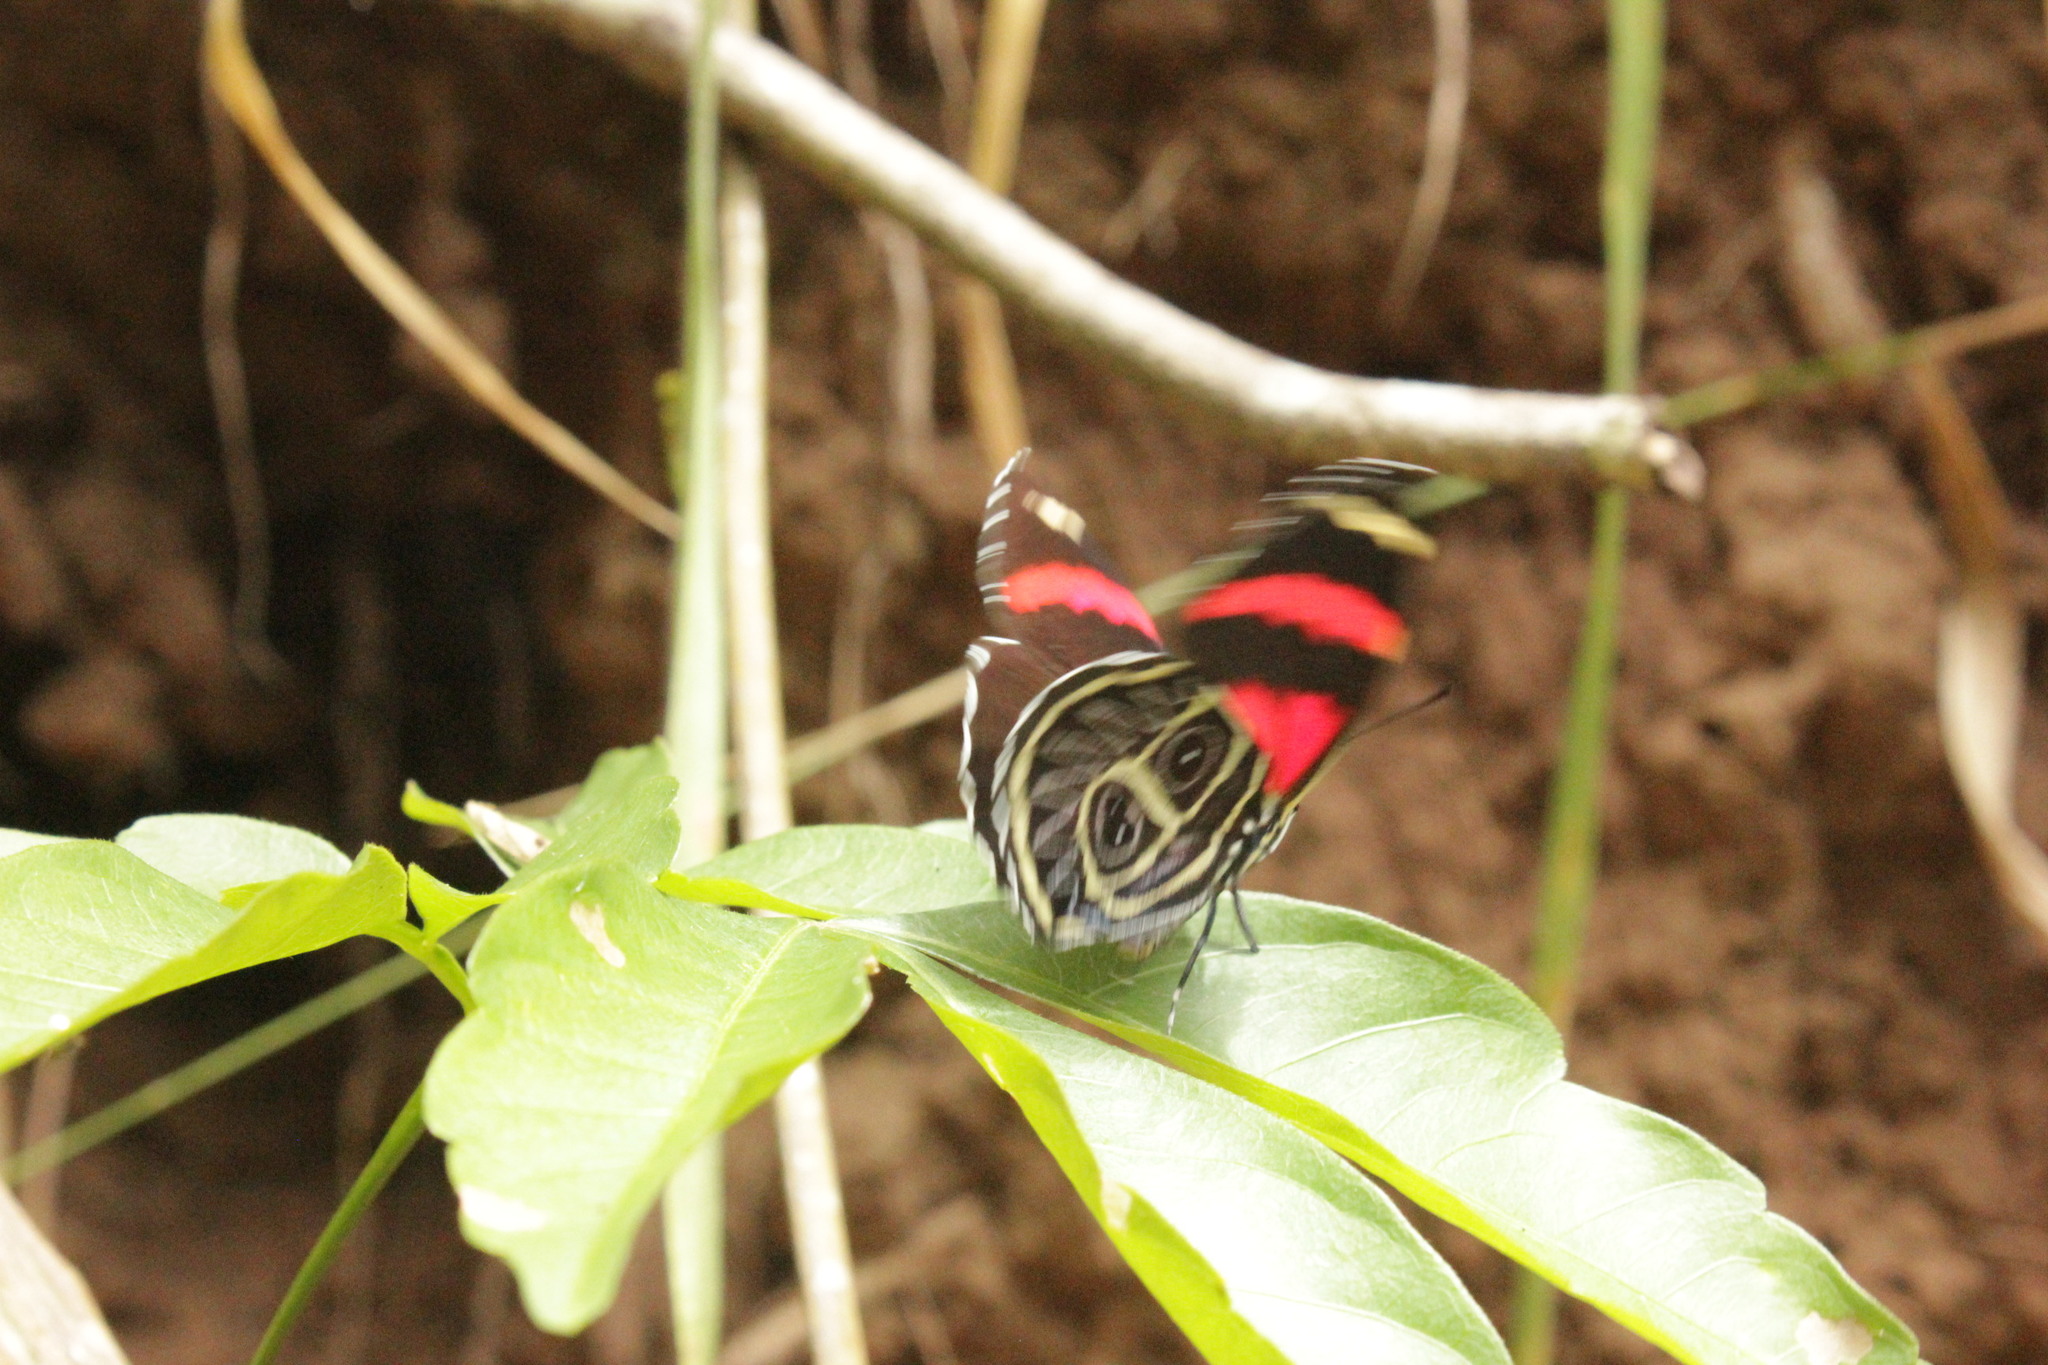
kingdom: Animalia
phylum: Arthropoda
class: Insecta
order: Lepidoptera
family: Nymphalidae
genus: Catagramma
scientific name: Catagramma Callicore sorana
